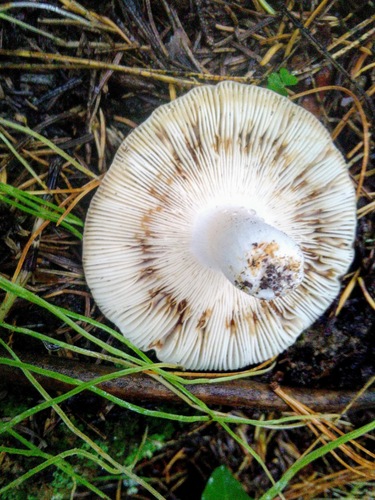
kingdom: Fungi
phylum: Basidiomycota
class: Agaricomycetes
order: Russulales
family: Russulaceae
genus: Russula
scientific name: Russula
